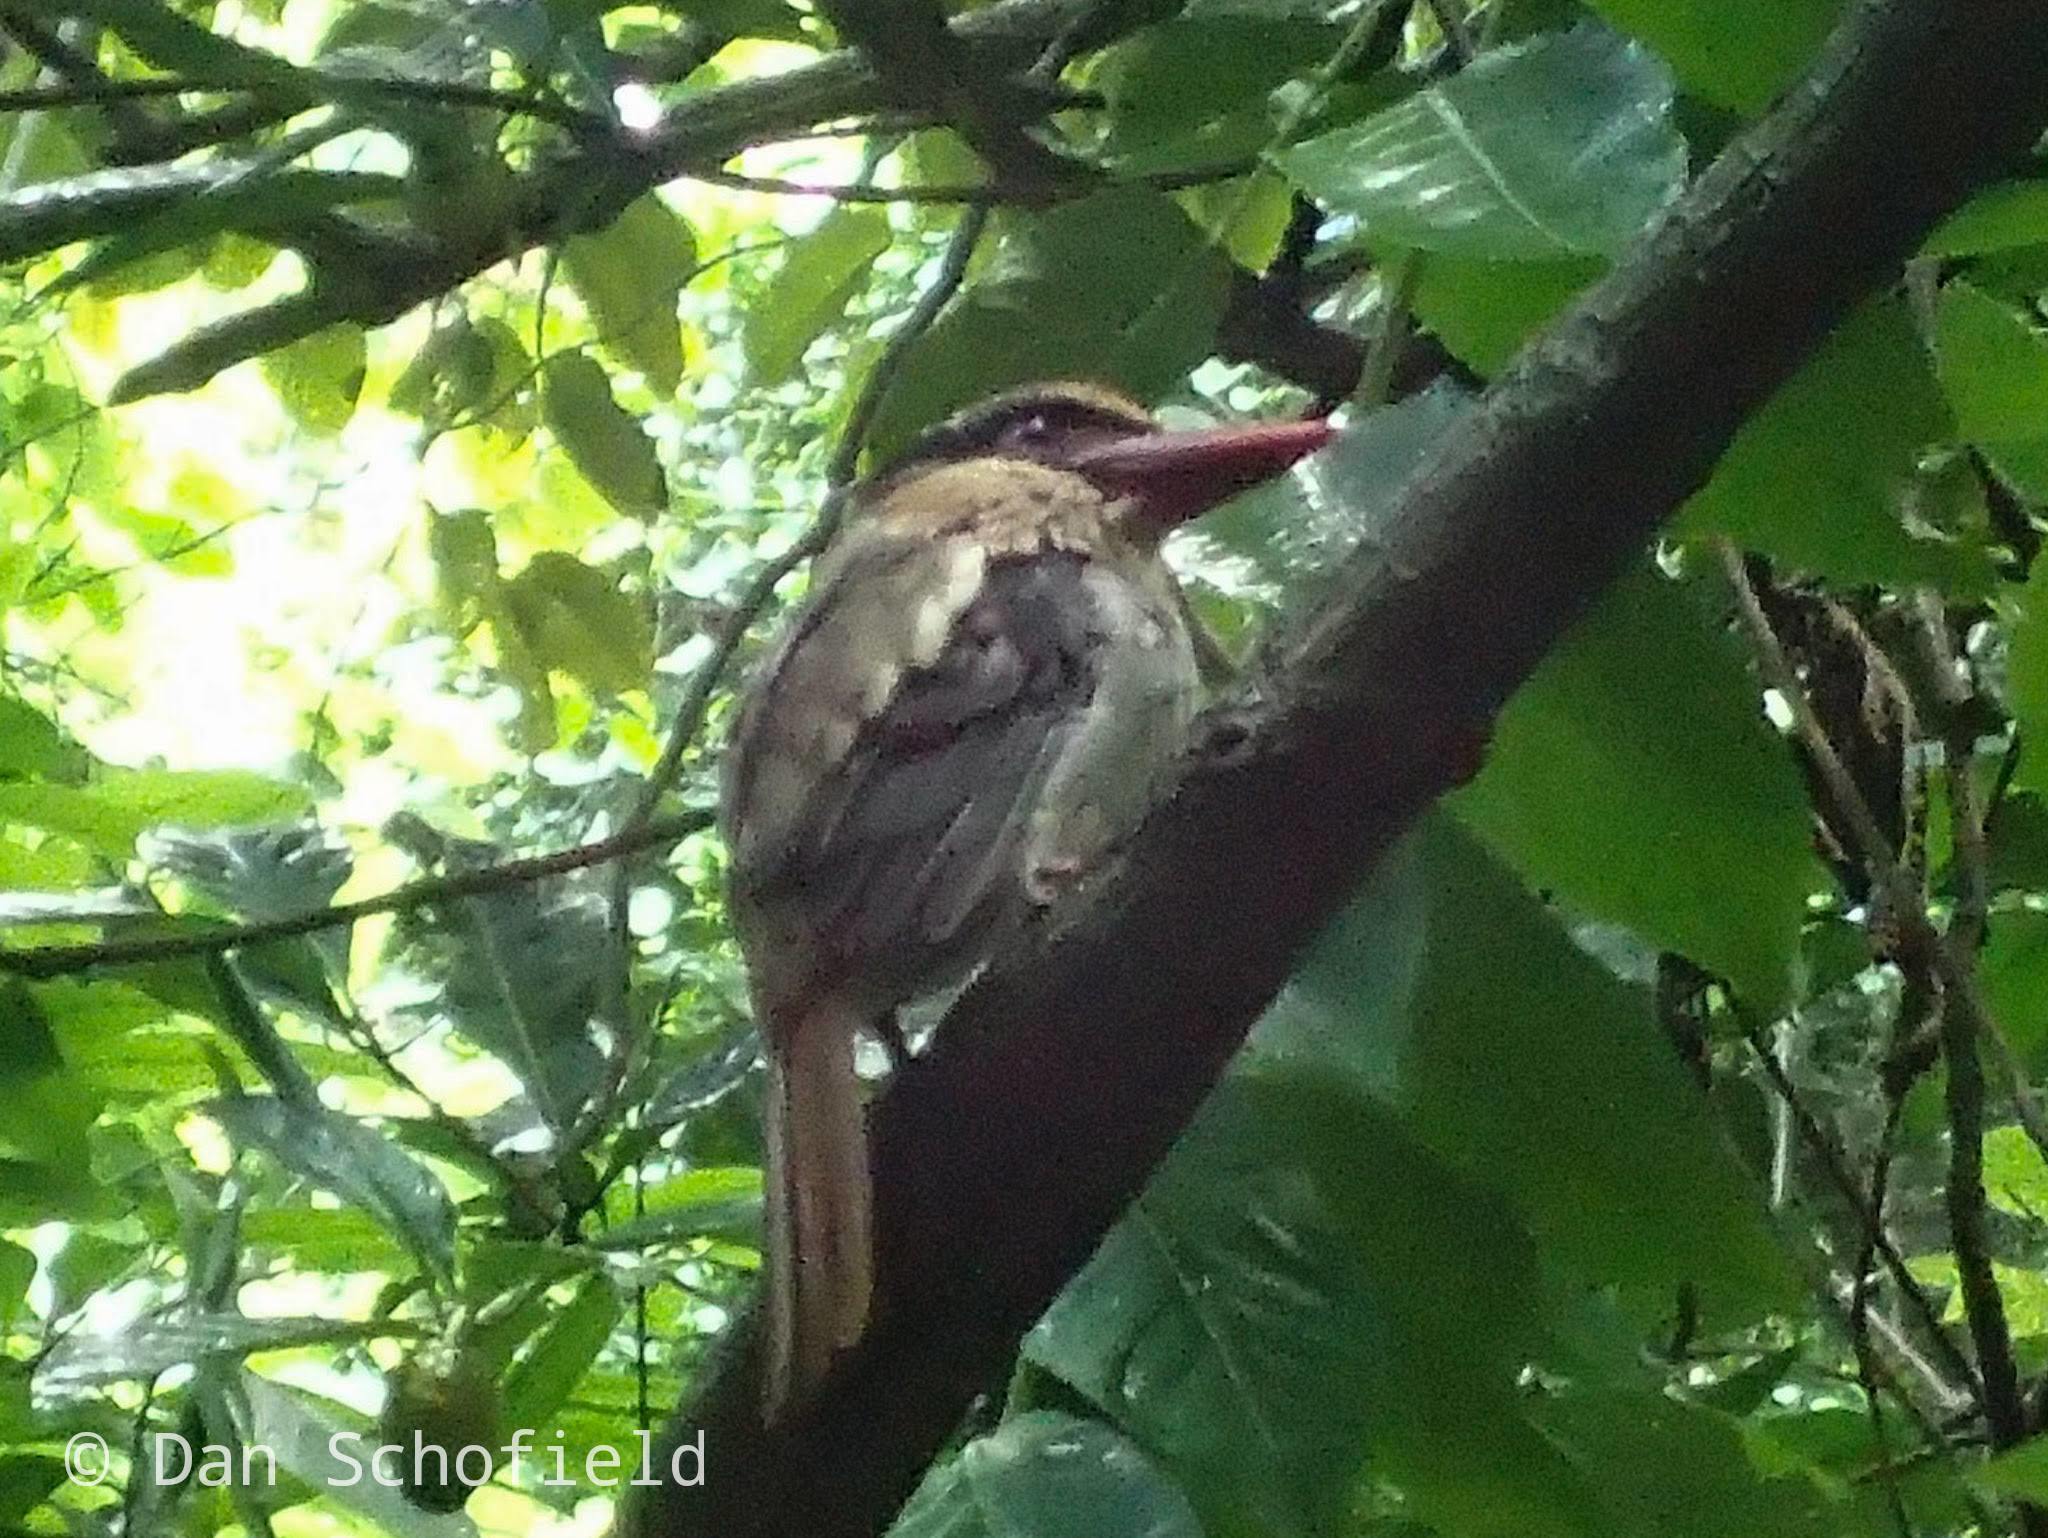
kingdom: Animalia
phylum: Chordata
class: Aves
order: Coraciiformes
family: Alcedinidae
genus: Cittura
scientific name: Cittura cyanotis
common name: Lilac kingfisher
